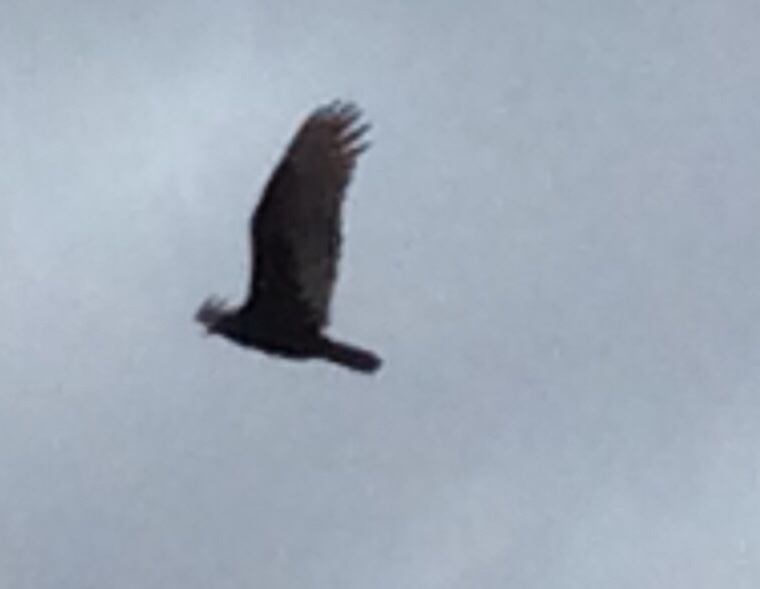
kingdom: Animalia
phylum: Chordata
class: Aves
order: Accipitriformes
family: Cathartidae
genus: Cathartes
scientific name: Cathartes aura
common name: Turkey vulture
